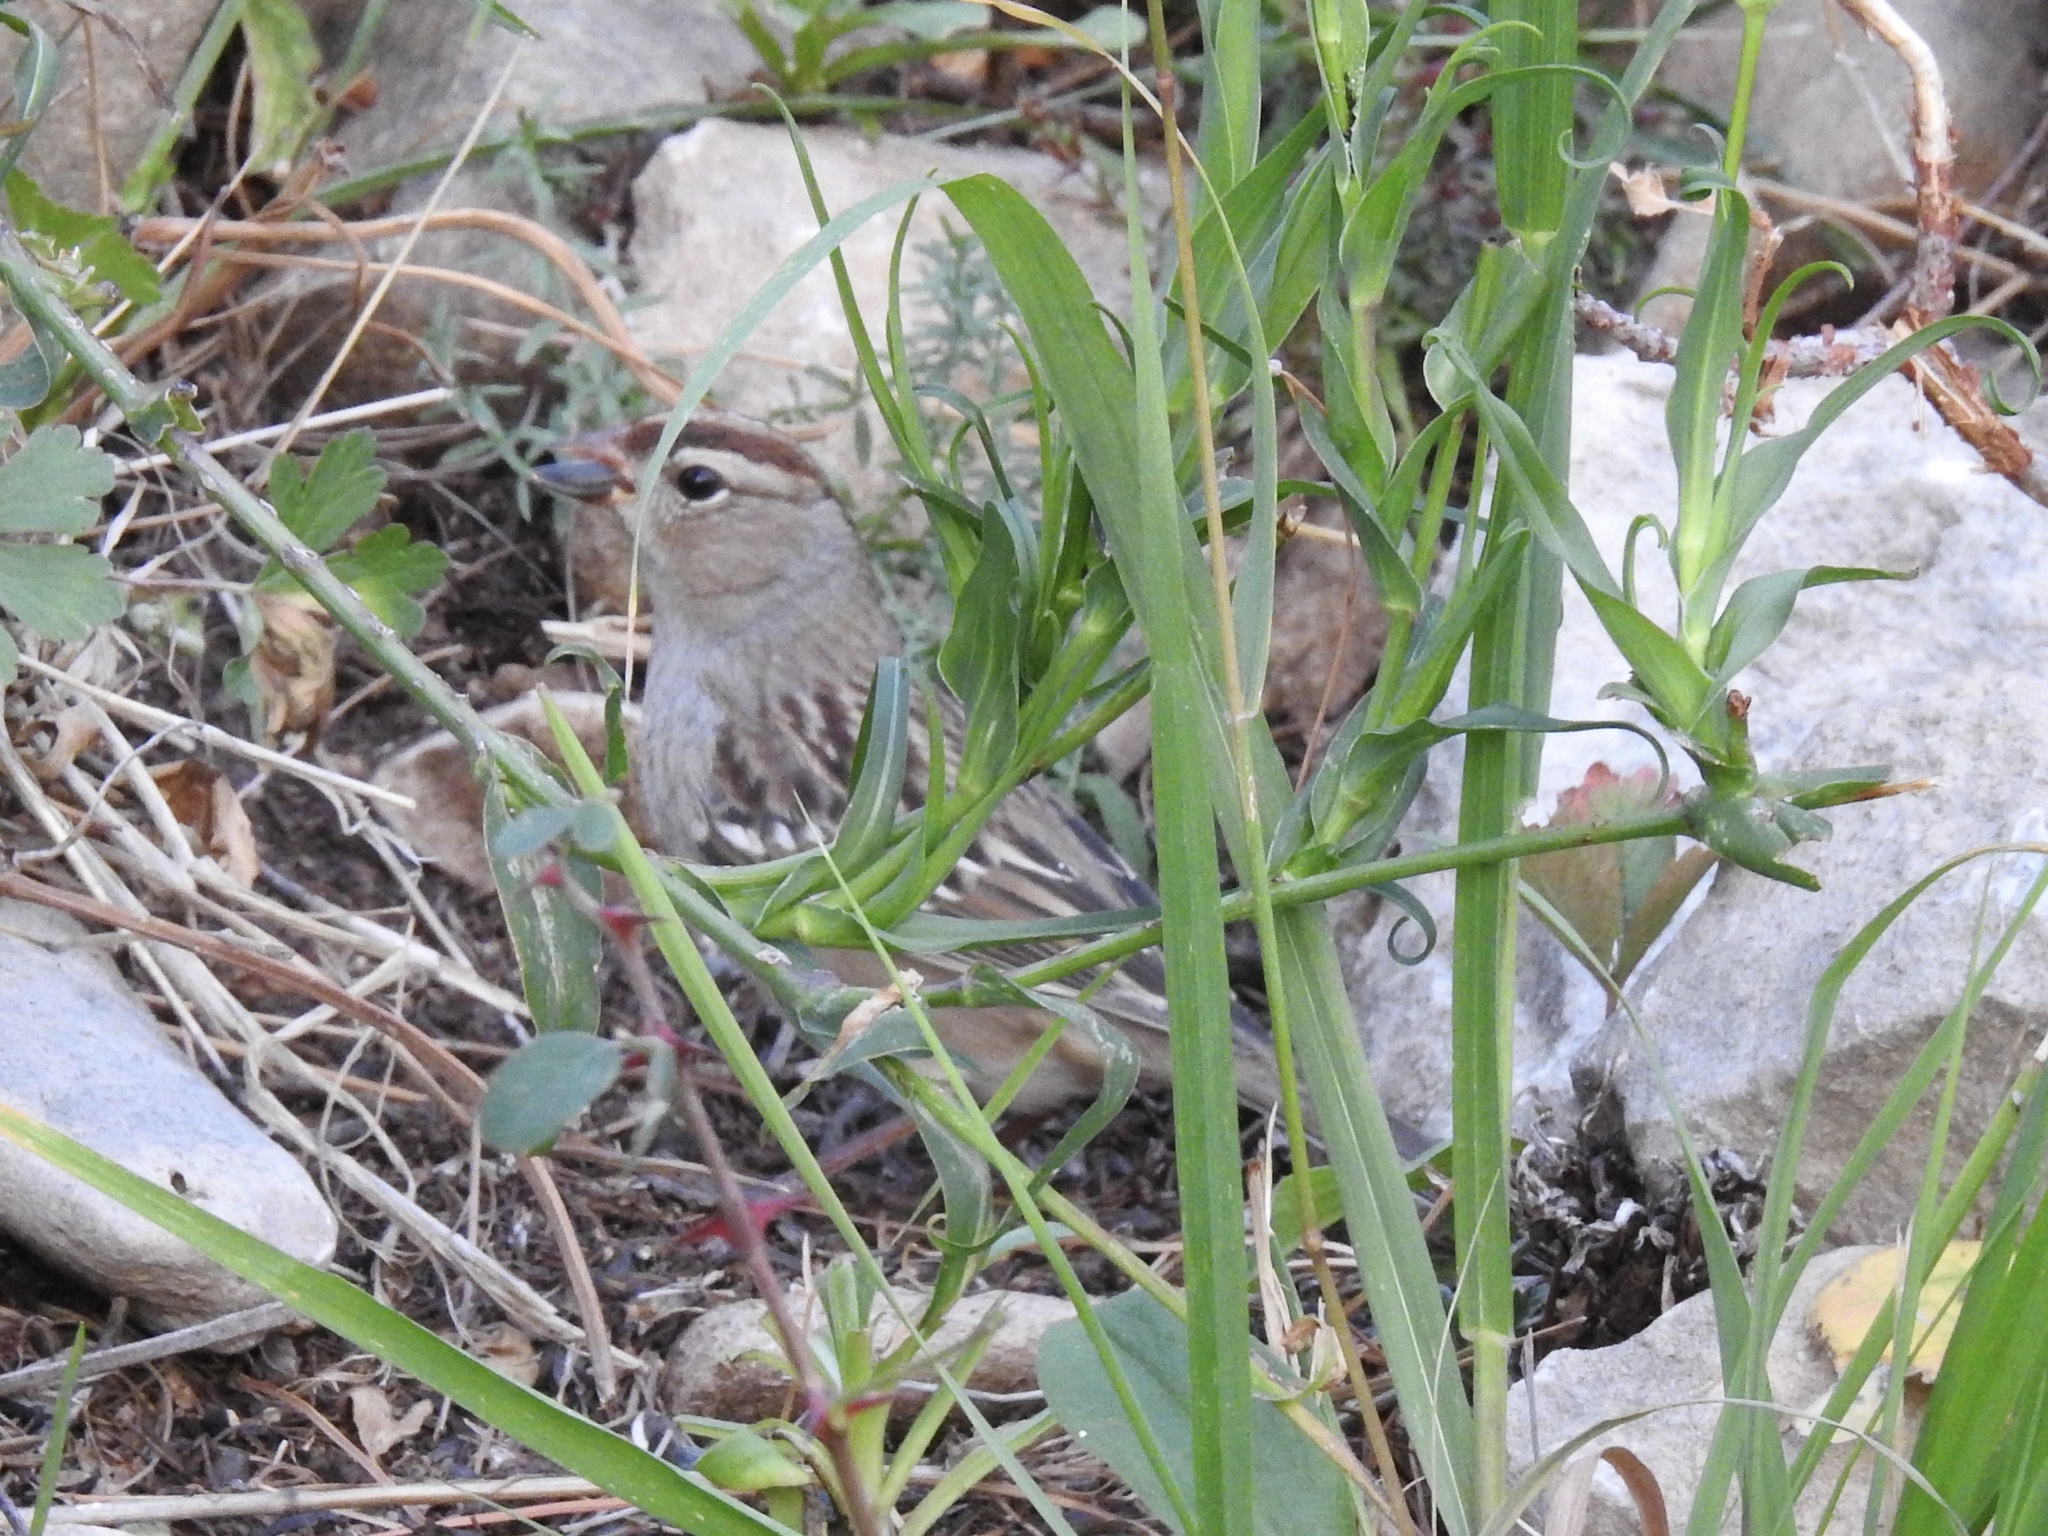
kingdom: Animalia
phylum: Chordata
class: Aves
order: Passeriformes
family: Passerellidae
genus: Zonotrichia
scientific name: Zonotrichia leucophrys
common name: White-crowned sparrow
